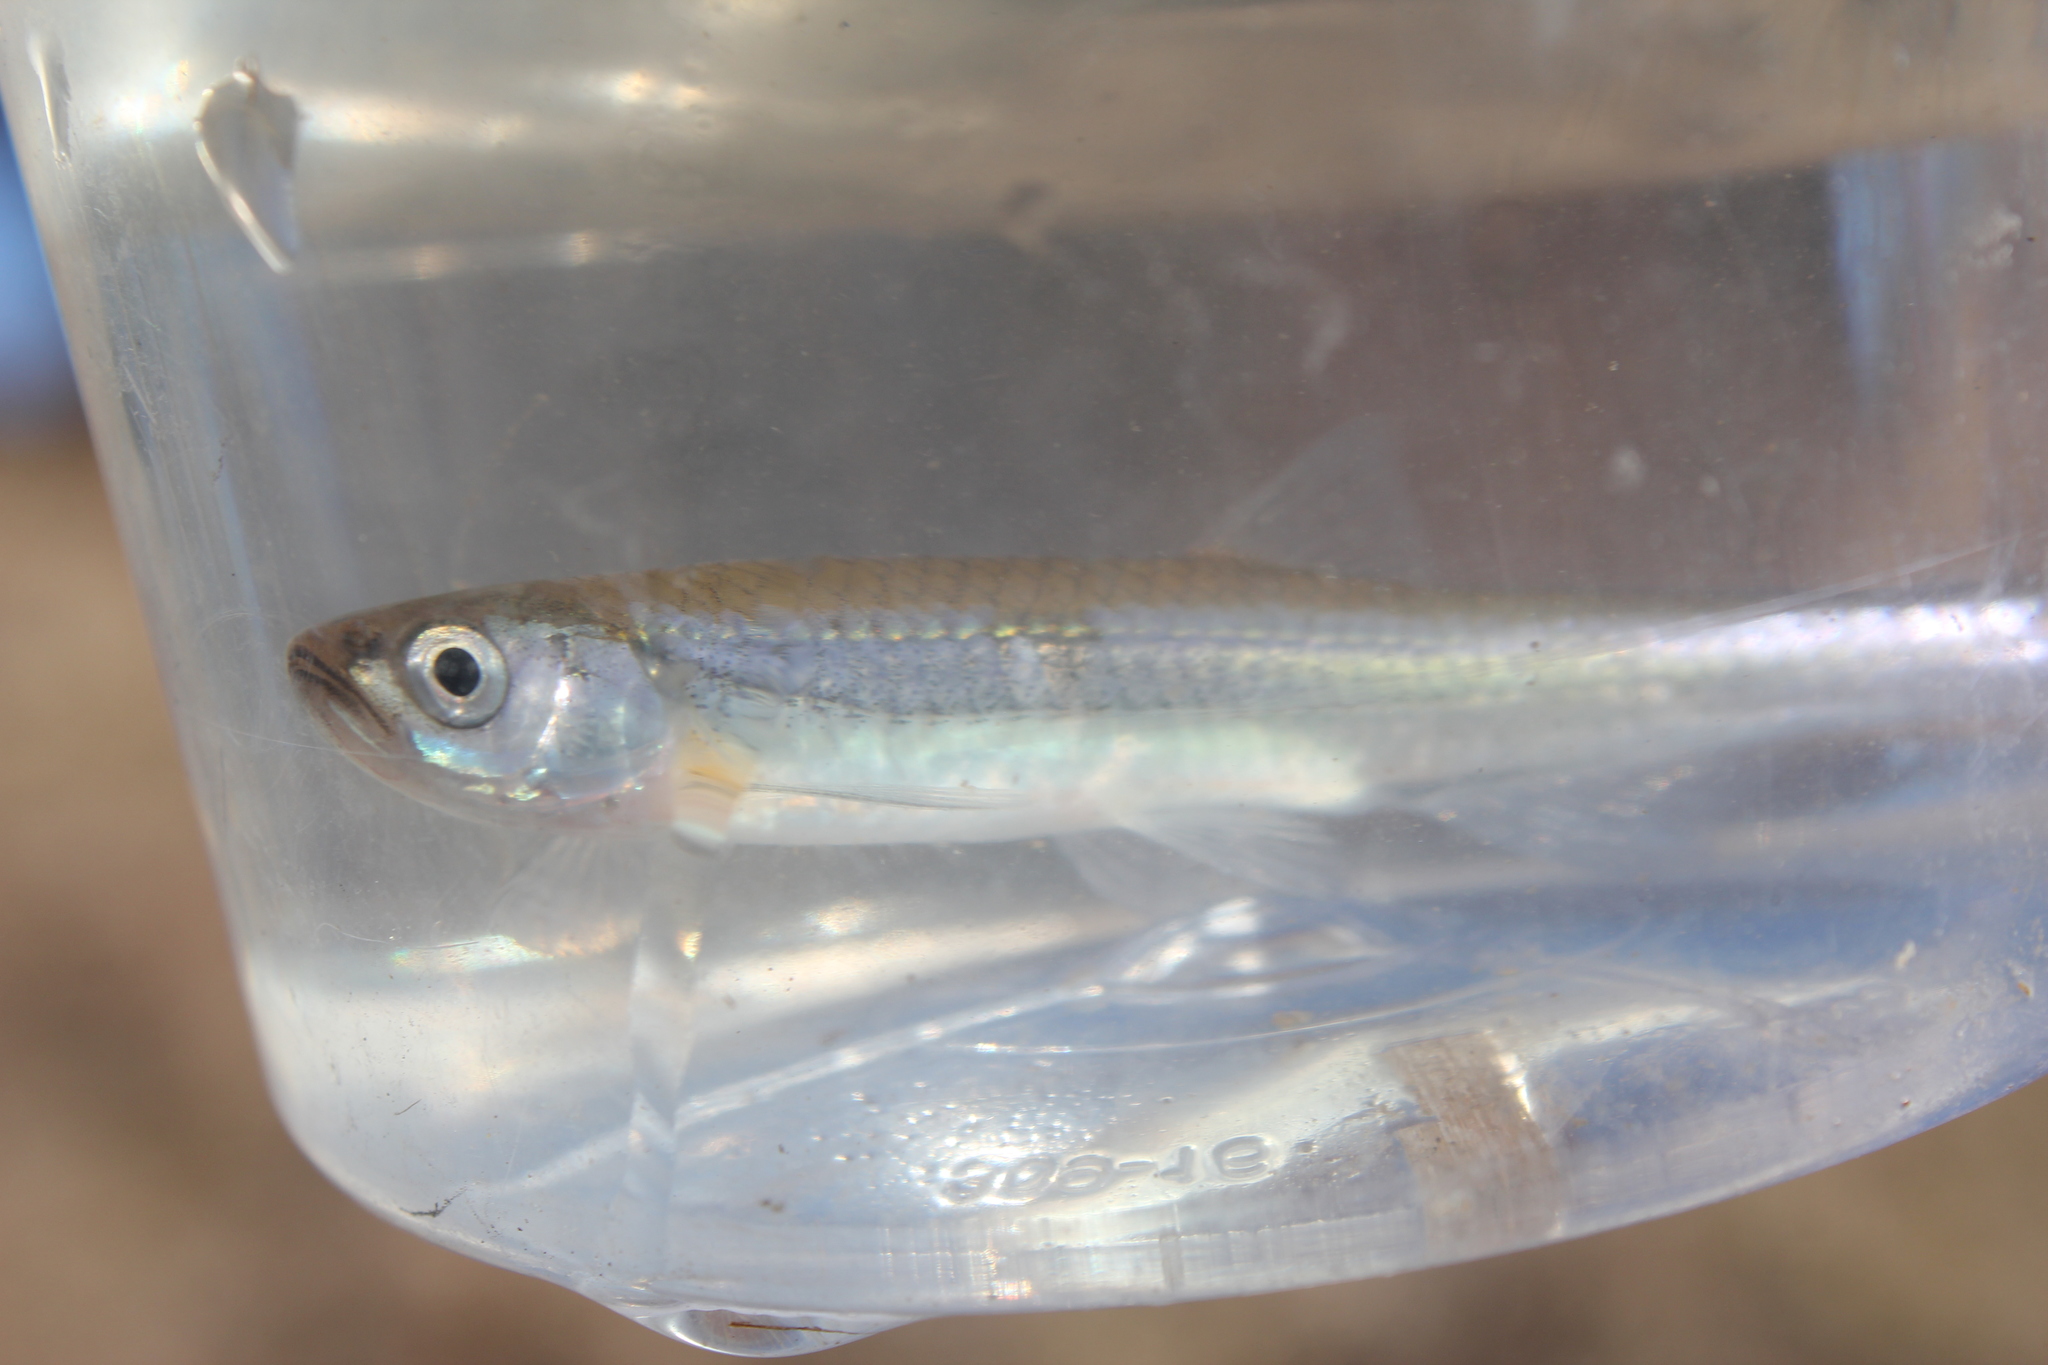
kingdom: Animalia
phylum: Chordata
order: Cypriniformes
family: Cyprinidae
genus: Notropis
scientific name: Notropis rubellus
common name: Rosyface shiner
